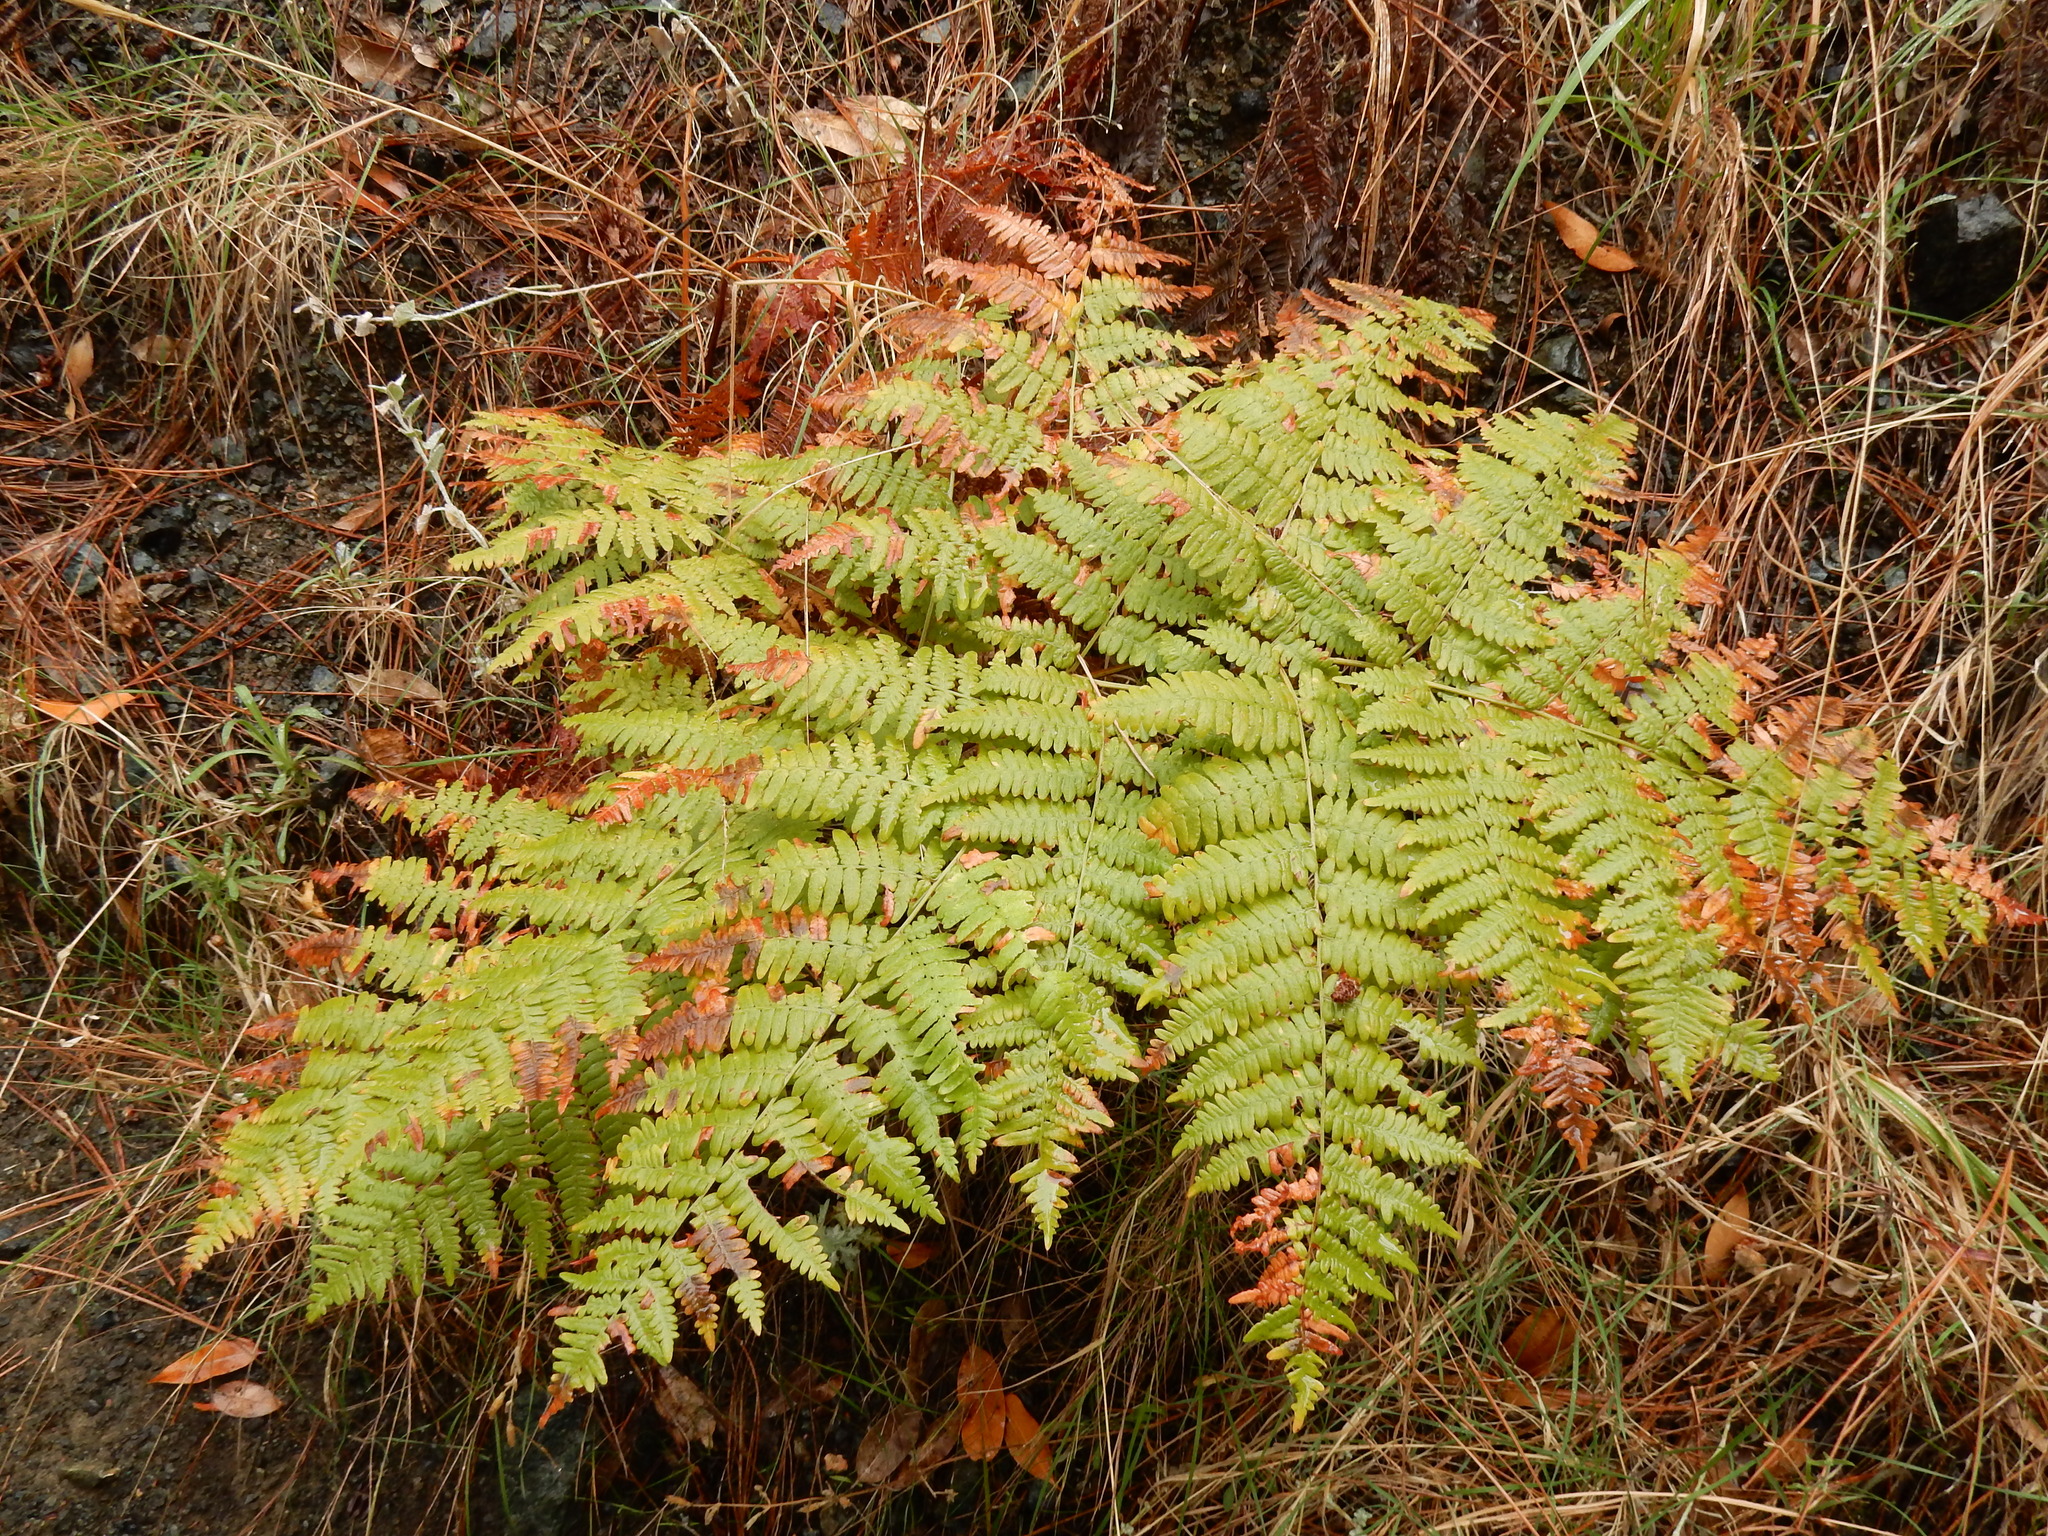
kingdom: Plantae
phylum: Tracheophyta
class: Polypodiopsida
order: Polypodiales
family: Dennstaedtiaceae
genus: Pteridium
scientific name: Pteridium aquilinum
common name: Bracken
